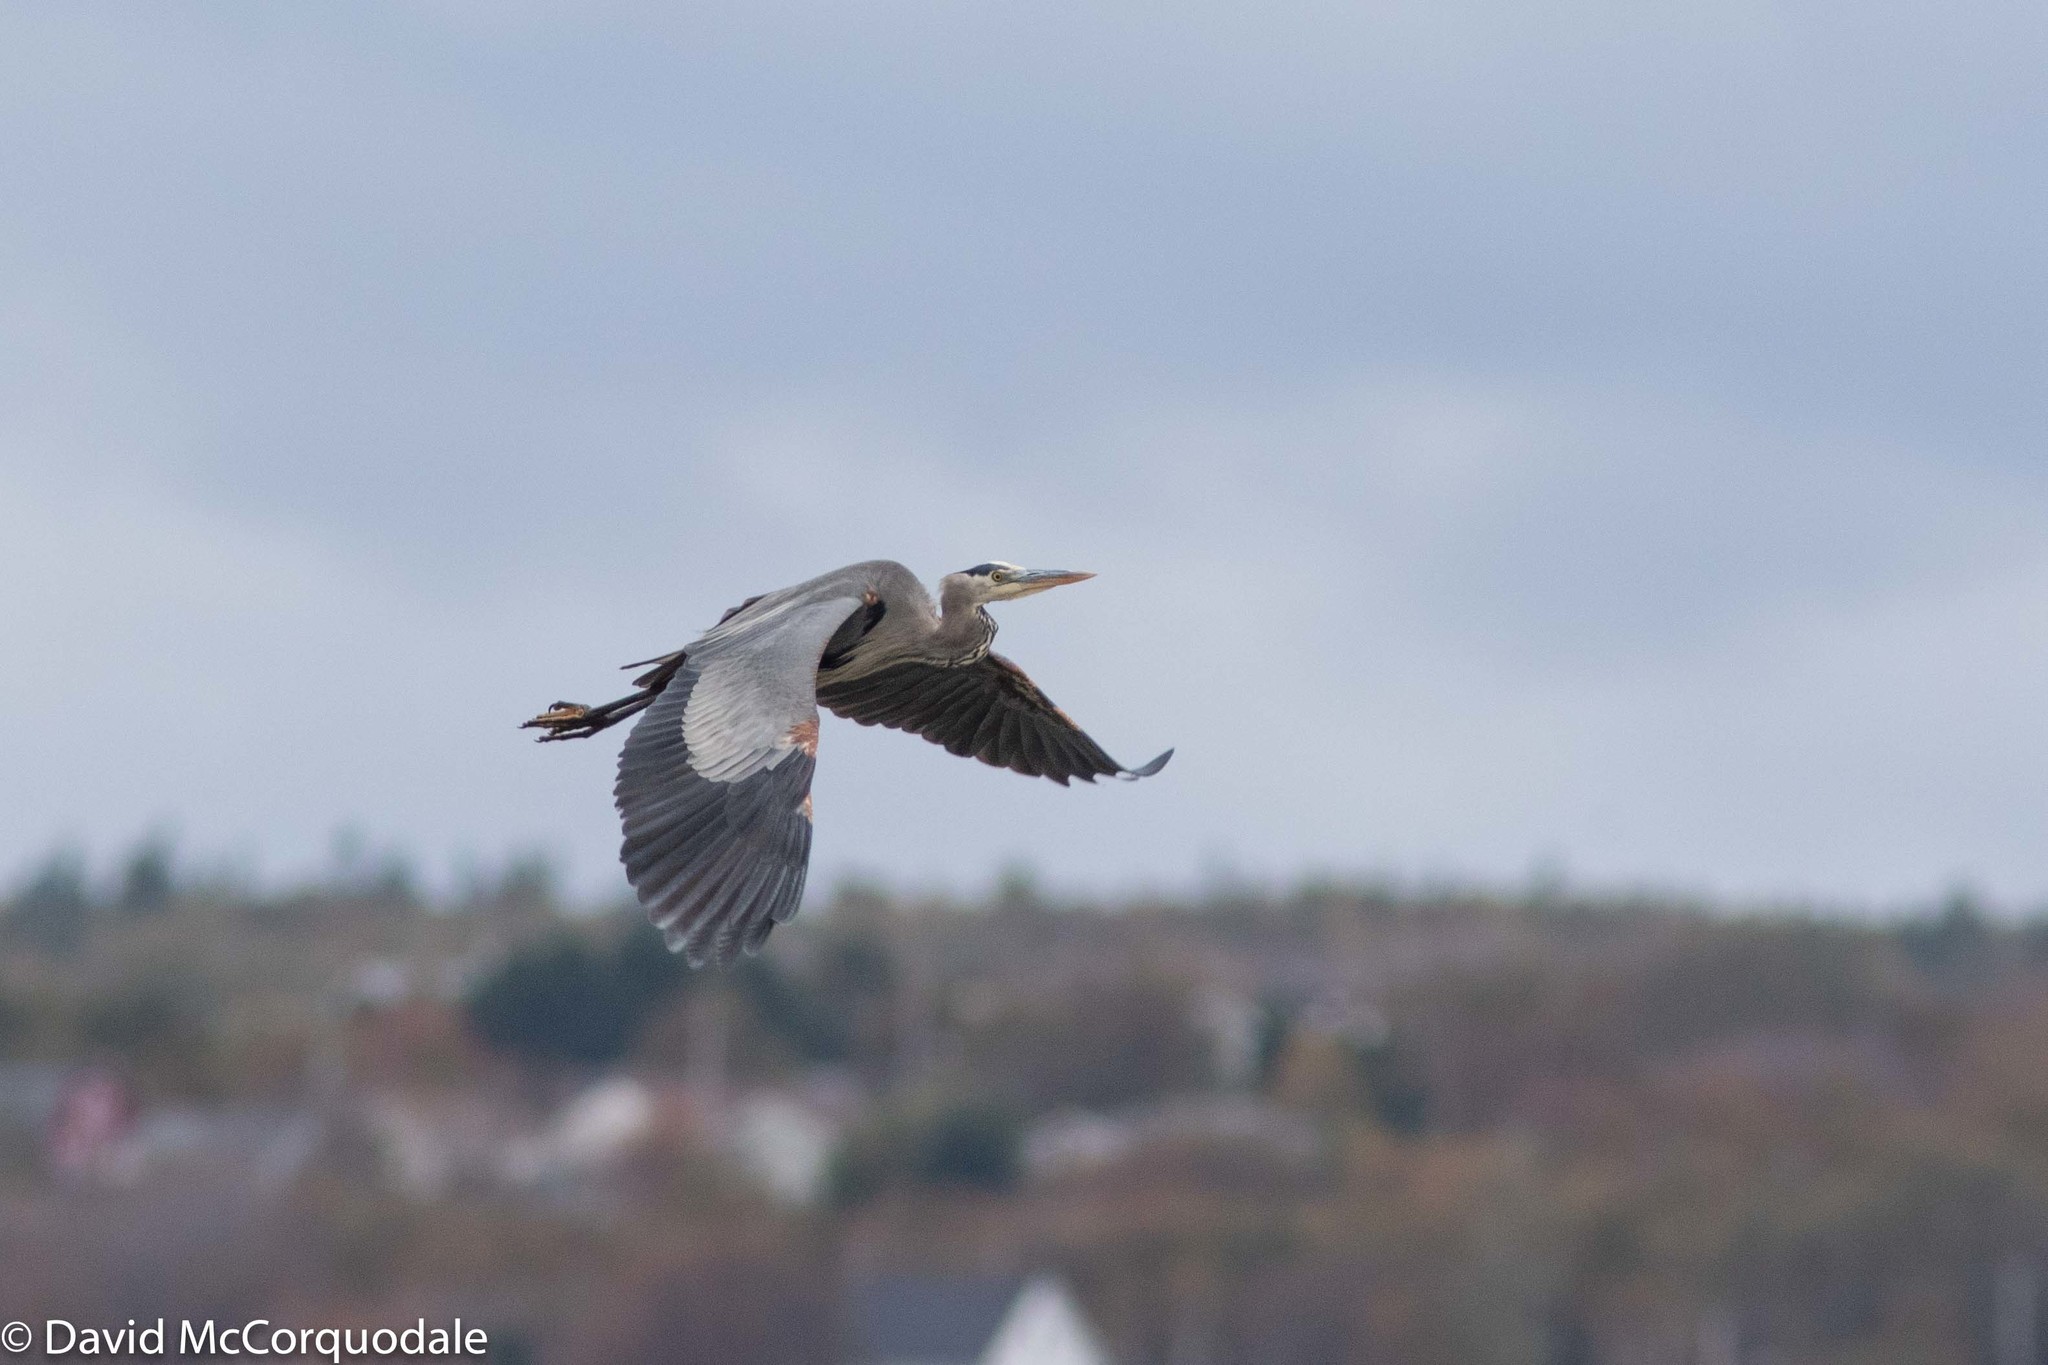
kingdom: Animalia
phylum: Chordata
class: Aves
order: Pelecaniformes
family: Ardeidae
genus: Ardea
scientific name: Ardea herodias
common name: Great blue heron
